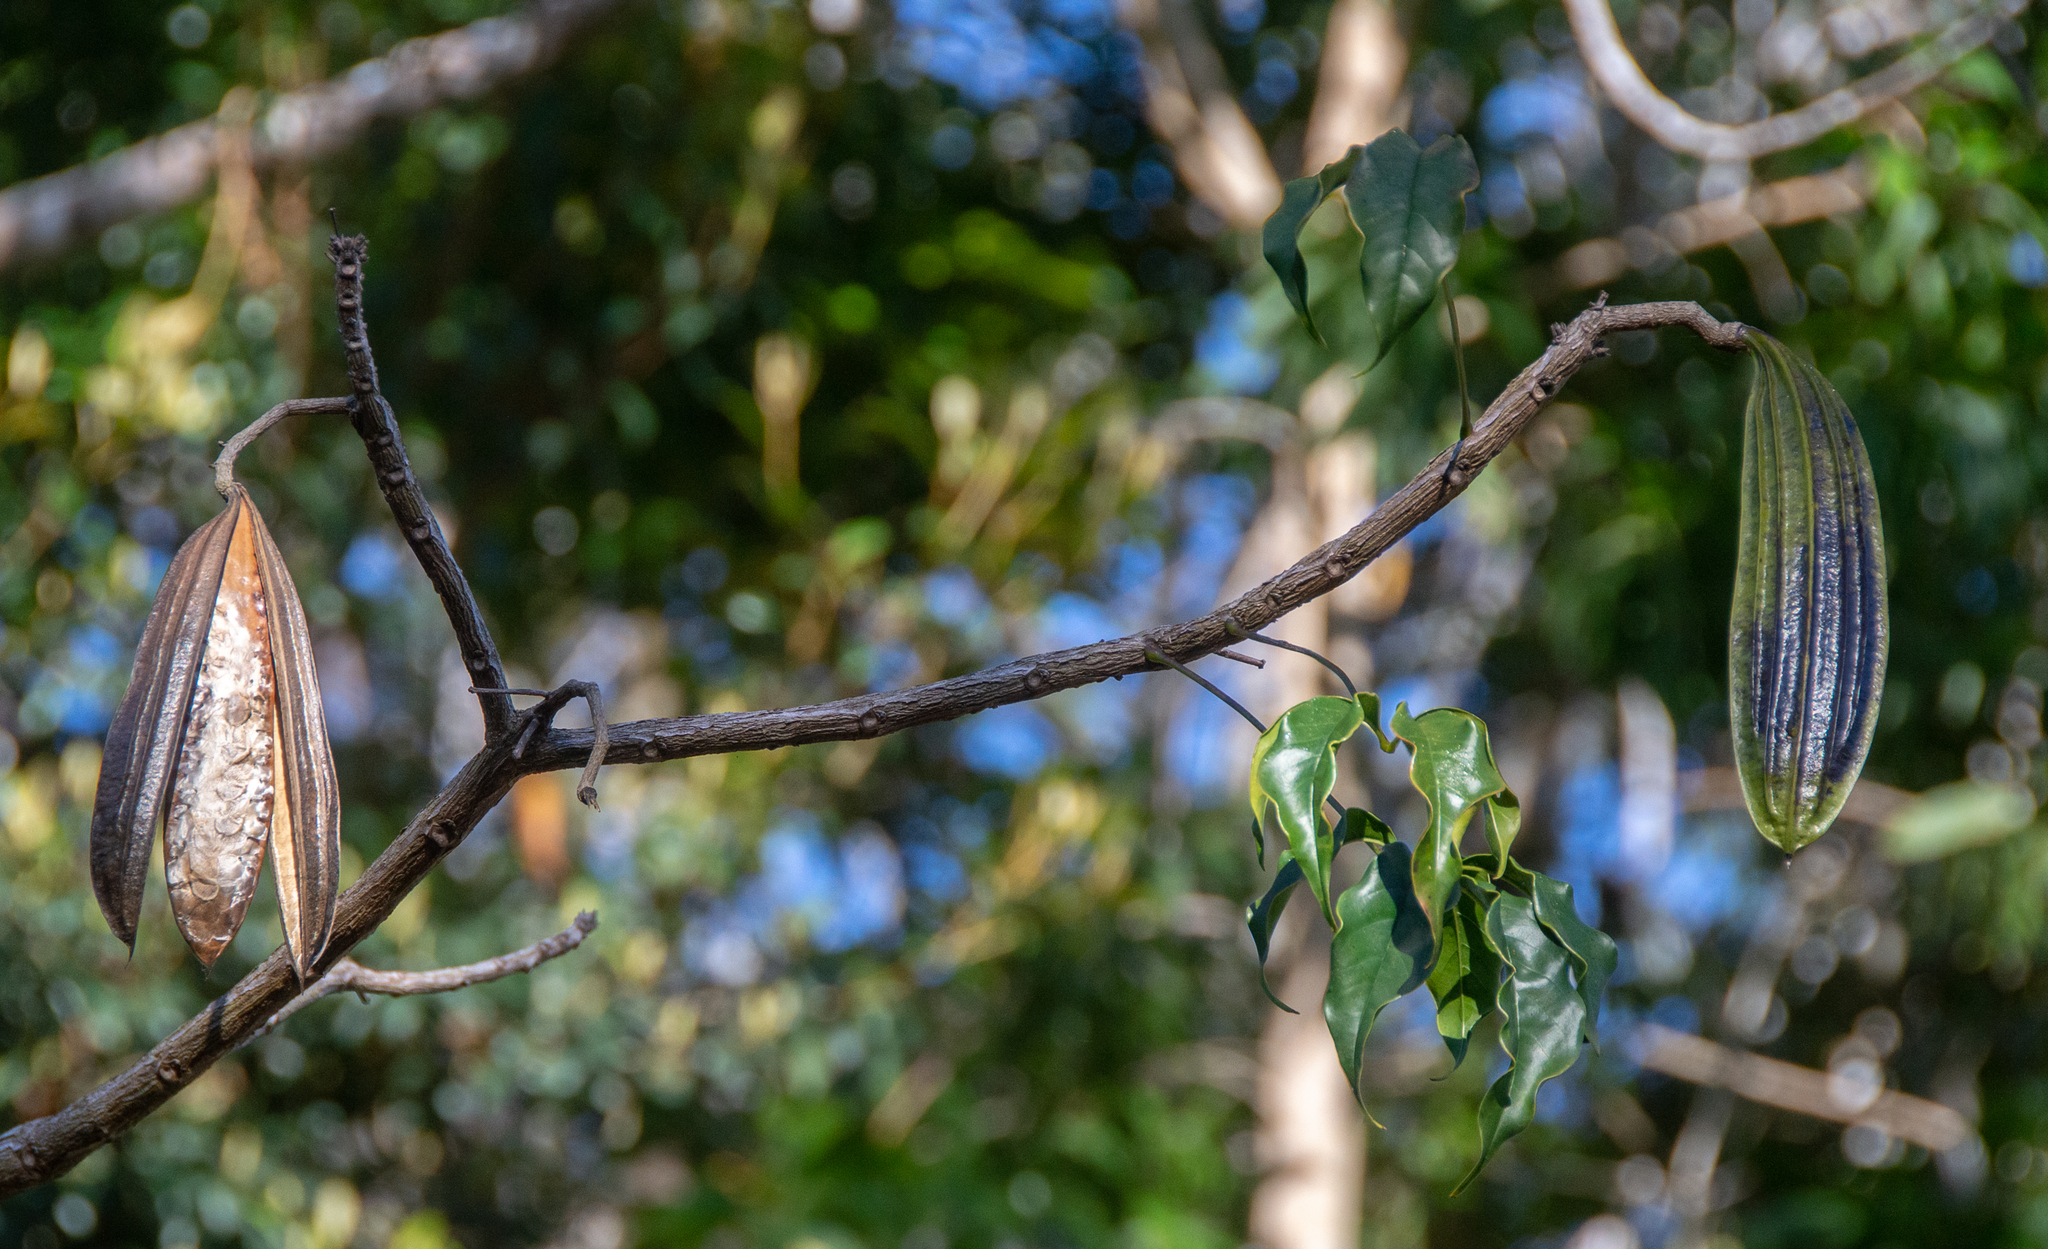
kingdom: Plantae
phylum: Tracheophyta
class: Magnoliopsida
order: Lamiales
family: Bignoniaceae
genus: Cybistax
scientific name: Cybistax antisyphilitica
